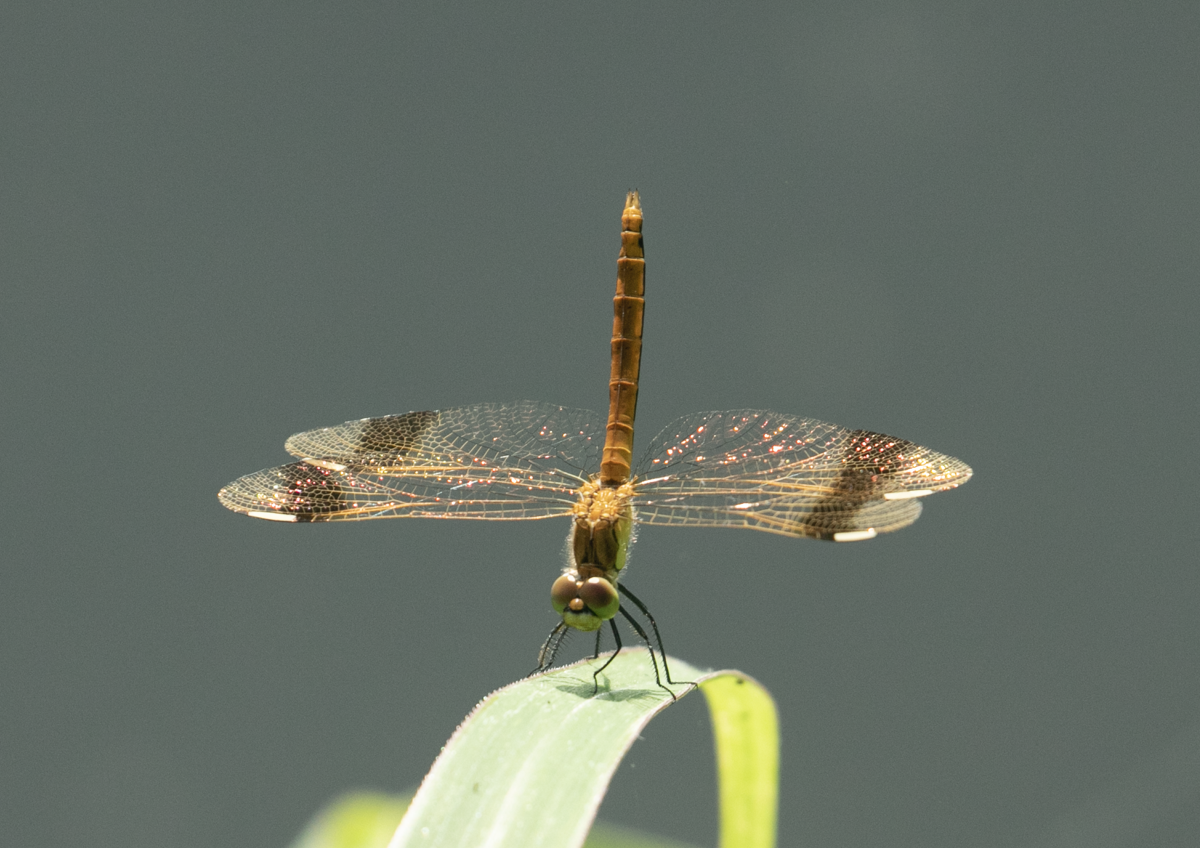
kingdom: Animalia
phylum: Arthropoda
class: Insecta
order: Odonata
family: Libellulidae
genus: Sympetrum
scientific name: Sympetrum pedemontanum
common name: Banded darter
